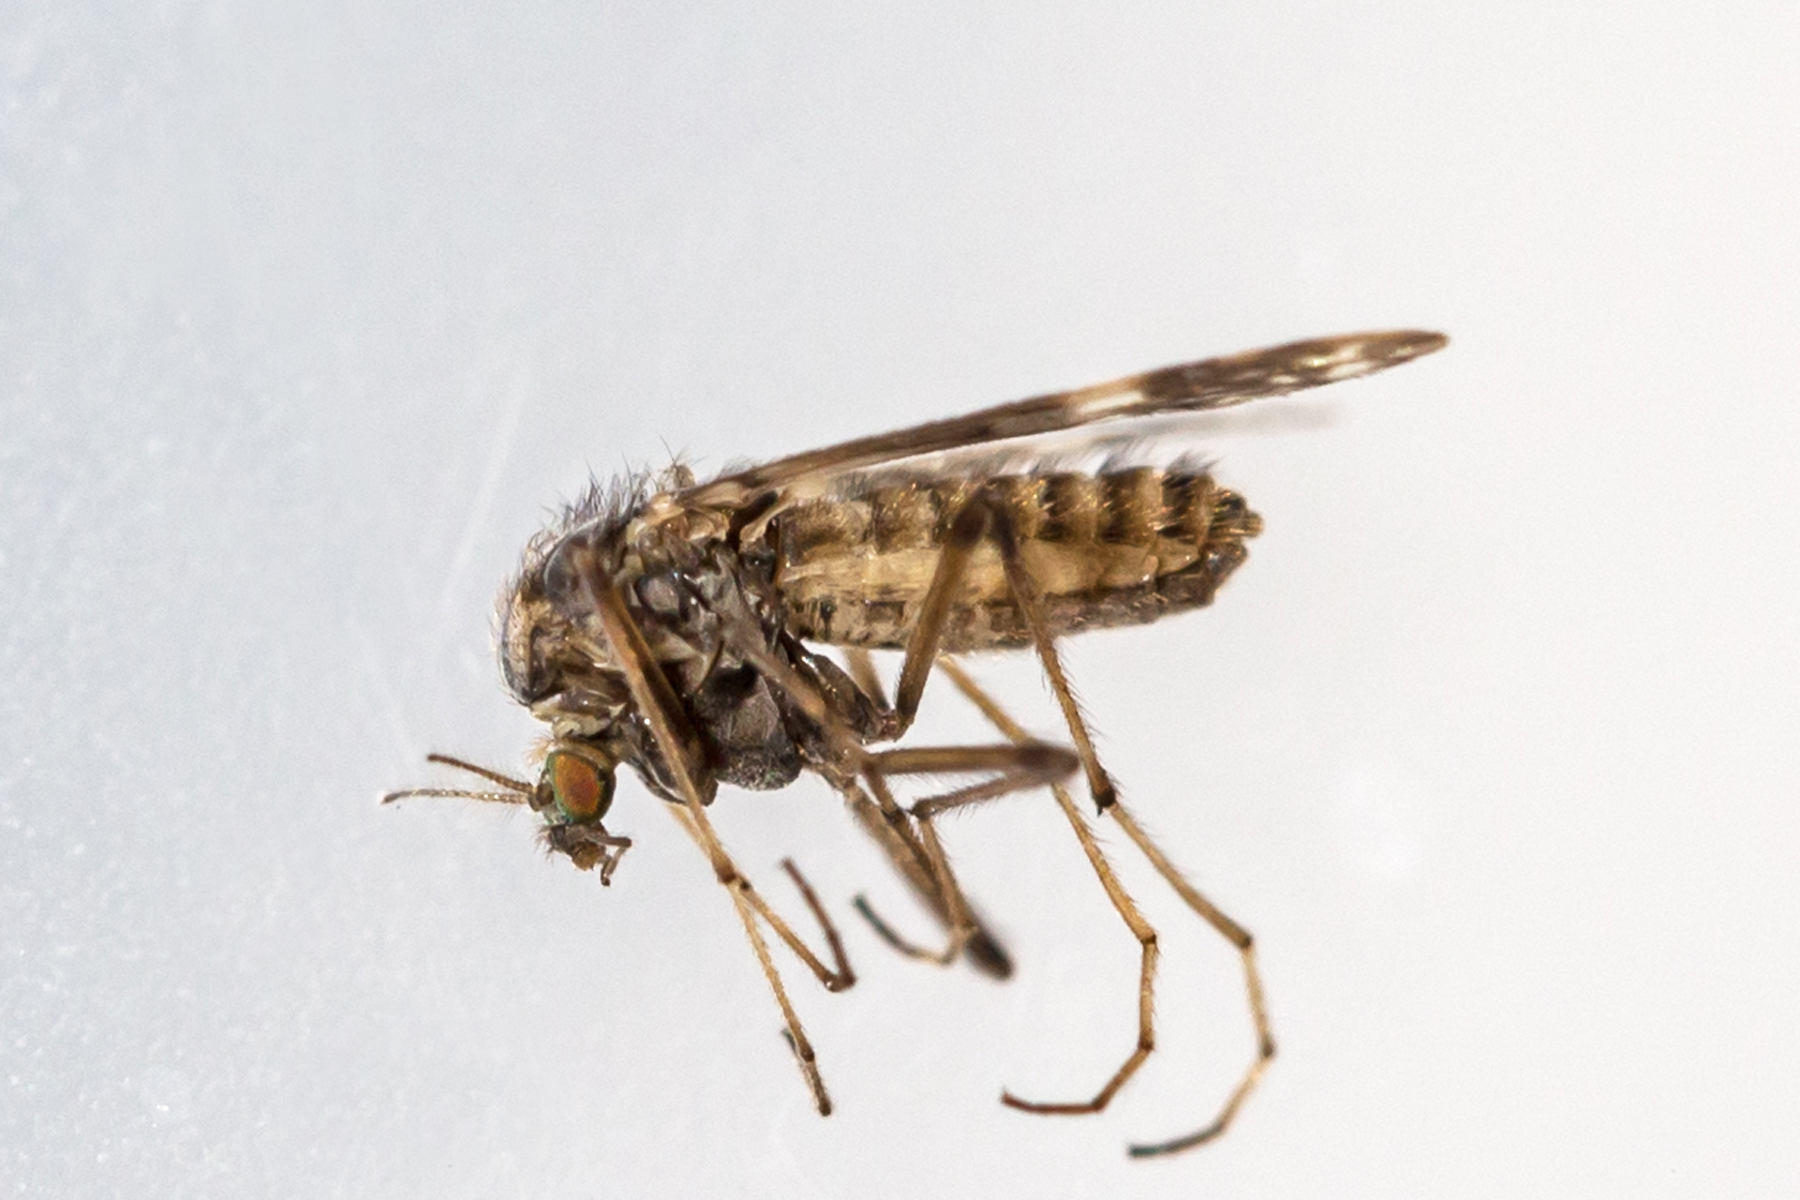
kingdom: Animalia
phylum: Arthropoda
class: Insecta
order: Diptera
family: Chironomidae
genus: Psectrotanypus
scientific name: Psectrotanypus dyari
